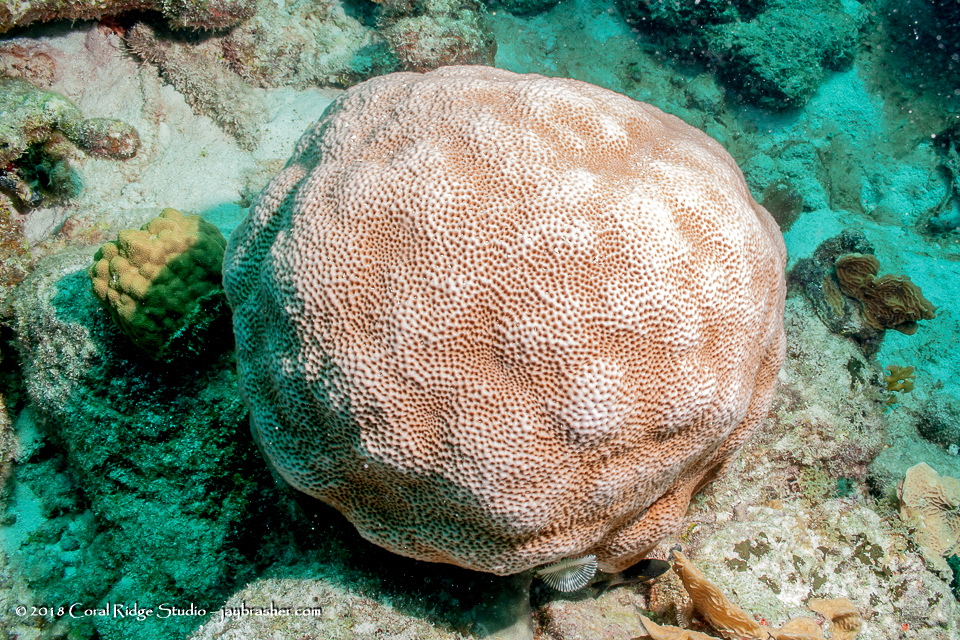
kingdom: Animalia
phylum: Cnidaria
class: Anthozoa
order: Scleractinia
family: Rhizangiidae
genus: Siderastrea
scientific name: Siderastrea siderea
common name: Massive starlet coral
